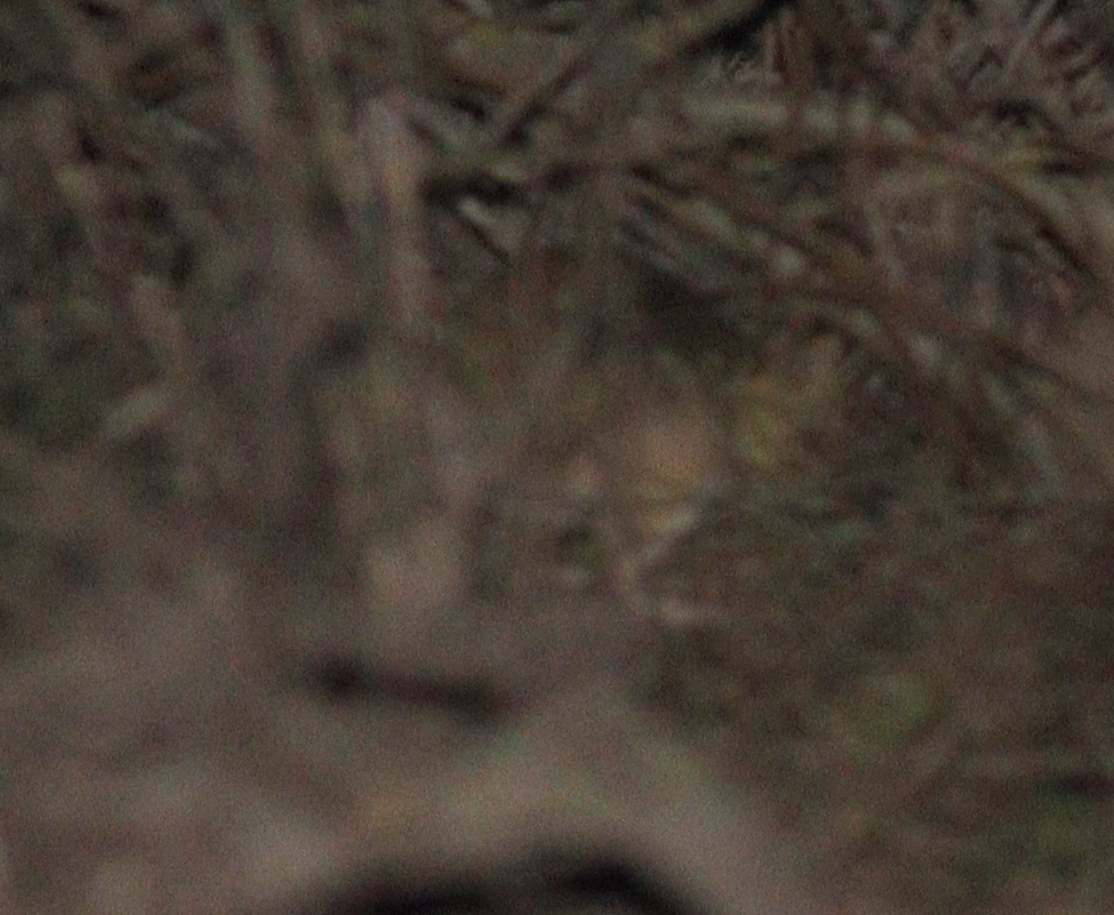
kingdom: Animalia
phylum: Chordata
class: Mammalia
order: Rodentia
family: Muridae
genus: Meriones
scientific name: Meriones sacramenti
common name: Buxton's jird
